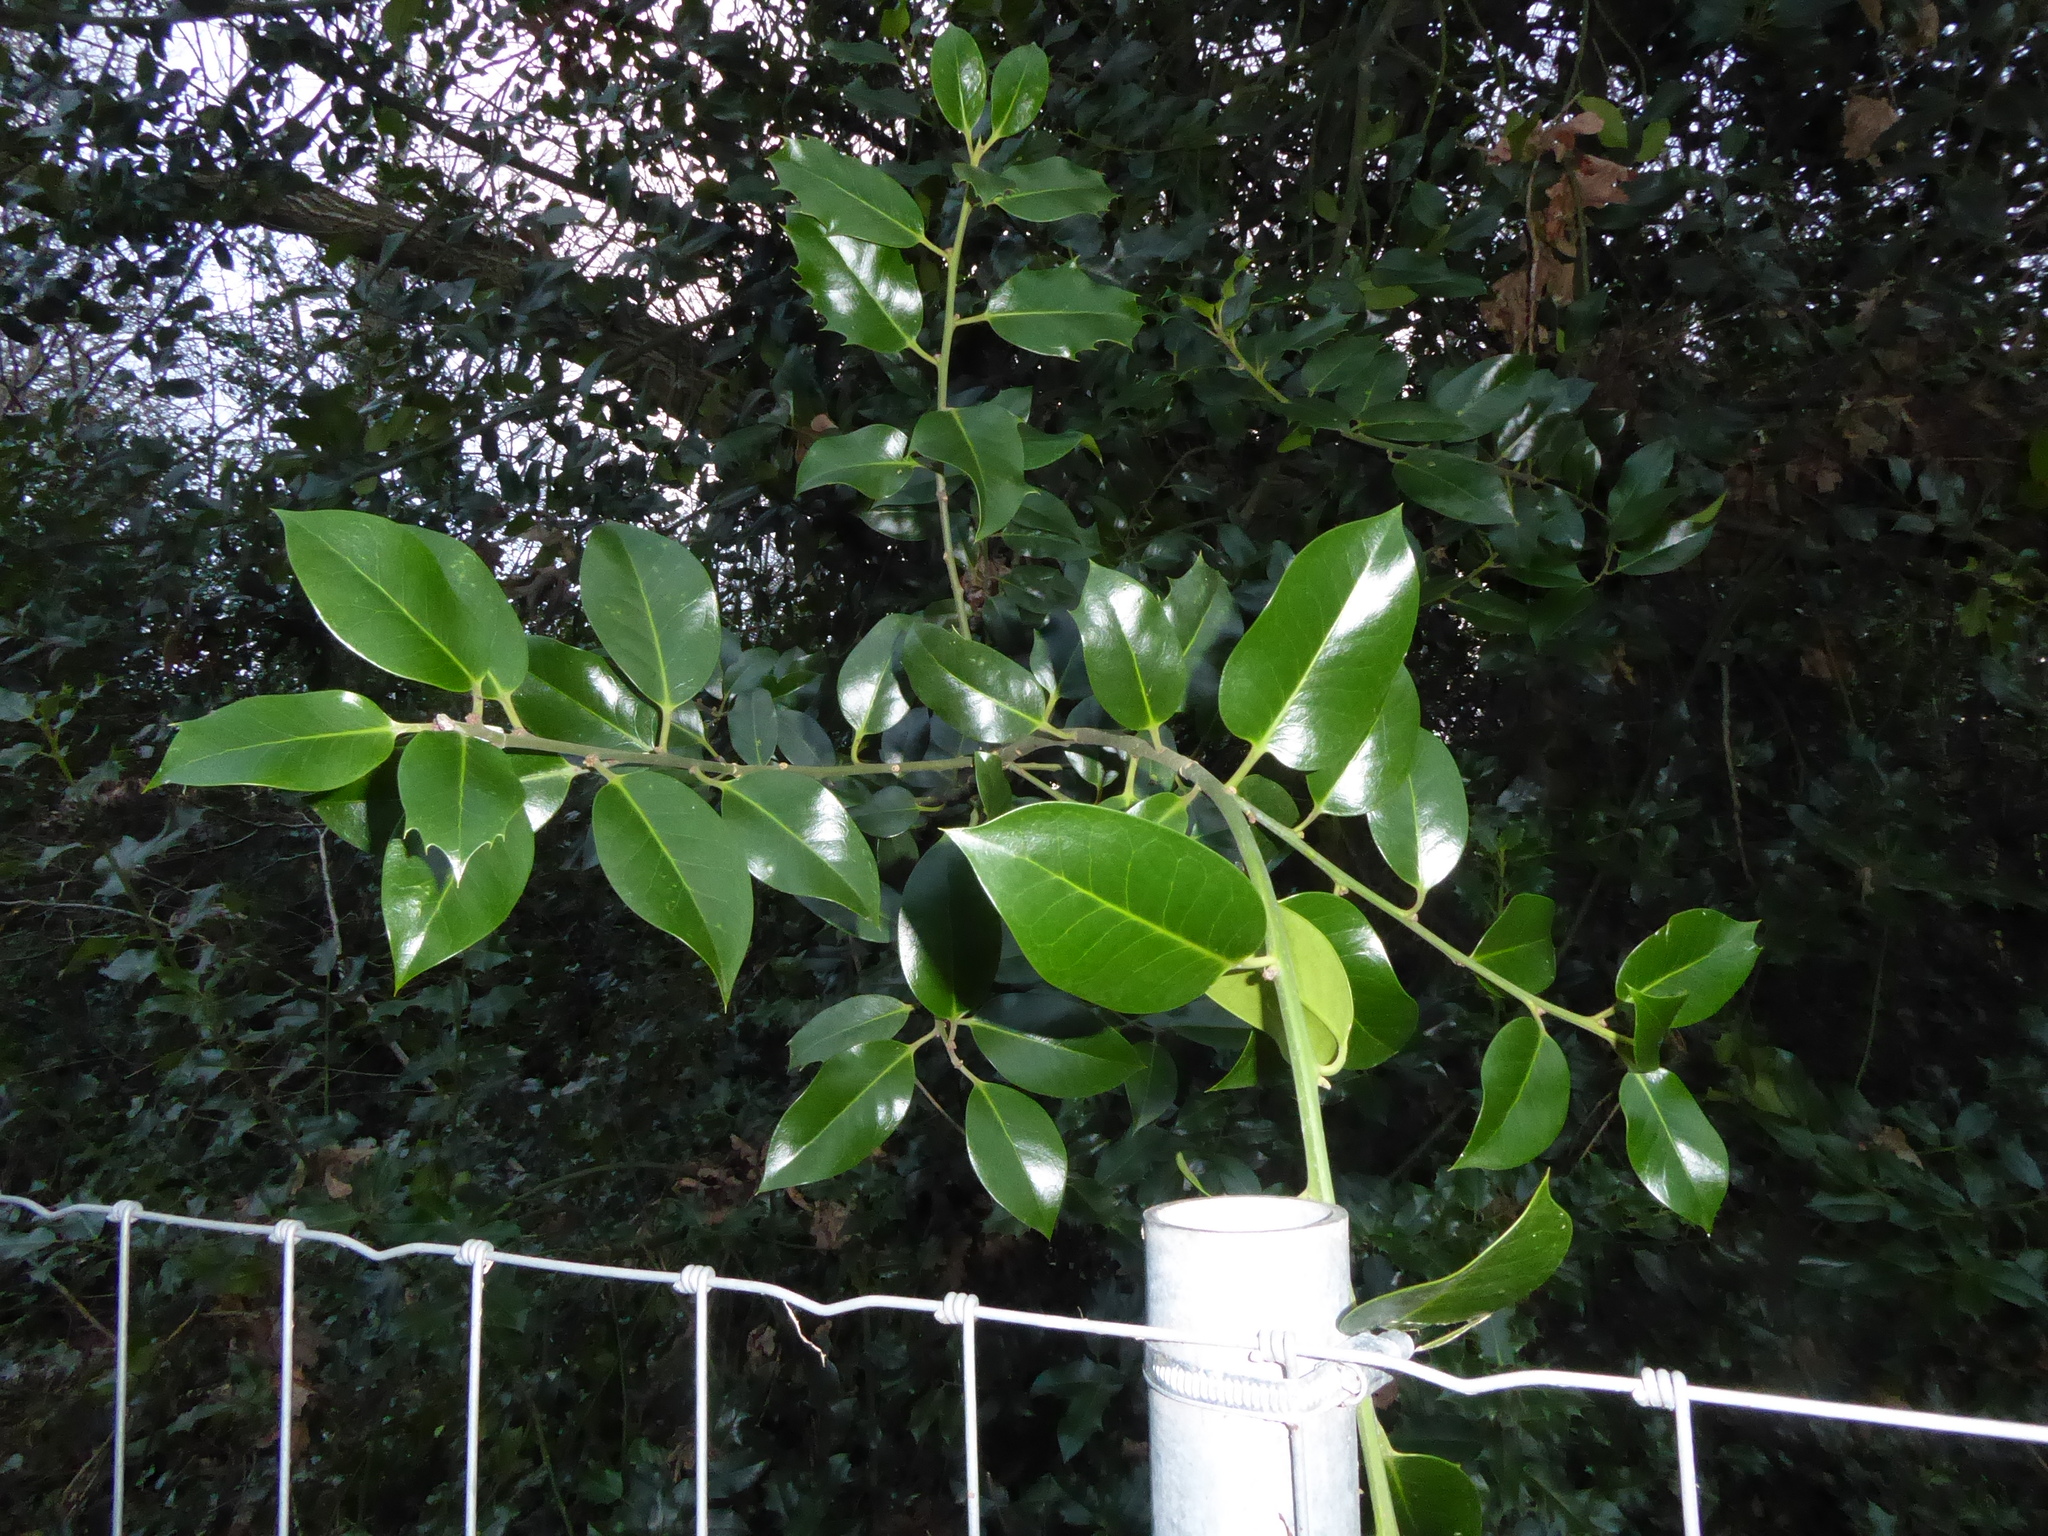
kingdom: Plantae
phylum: Tracheophyta
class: Magnoliopsida
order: Aquifoliales
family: Aquifoliaceae
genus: Ilex
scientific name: Ilex aquifolium
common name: English holly
